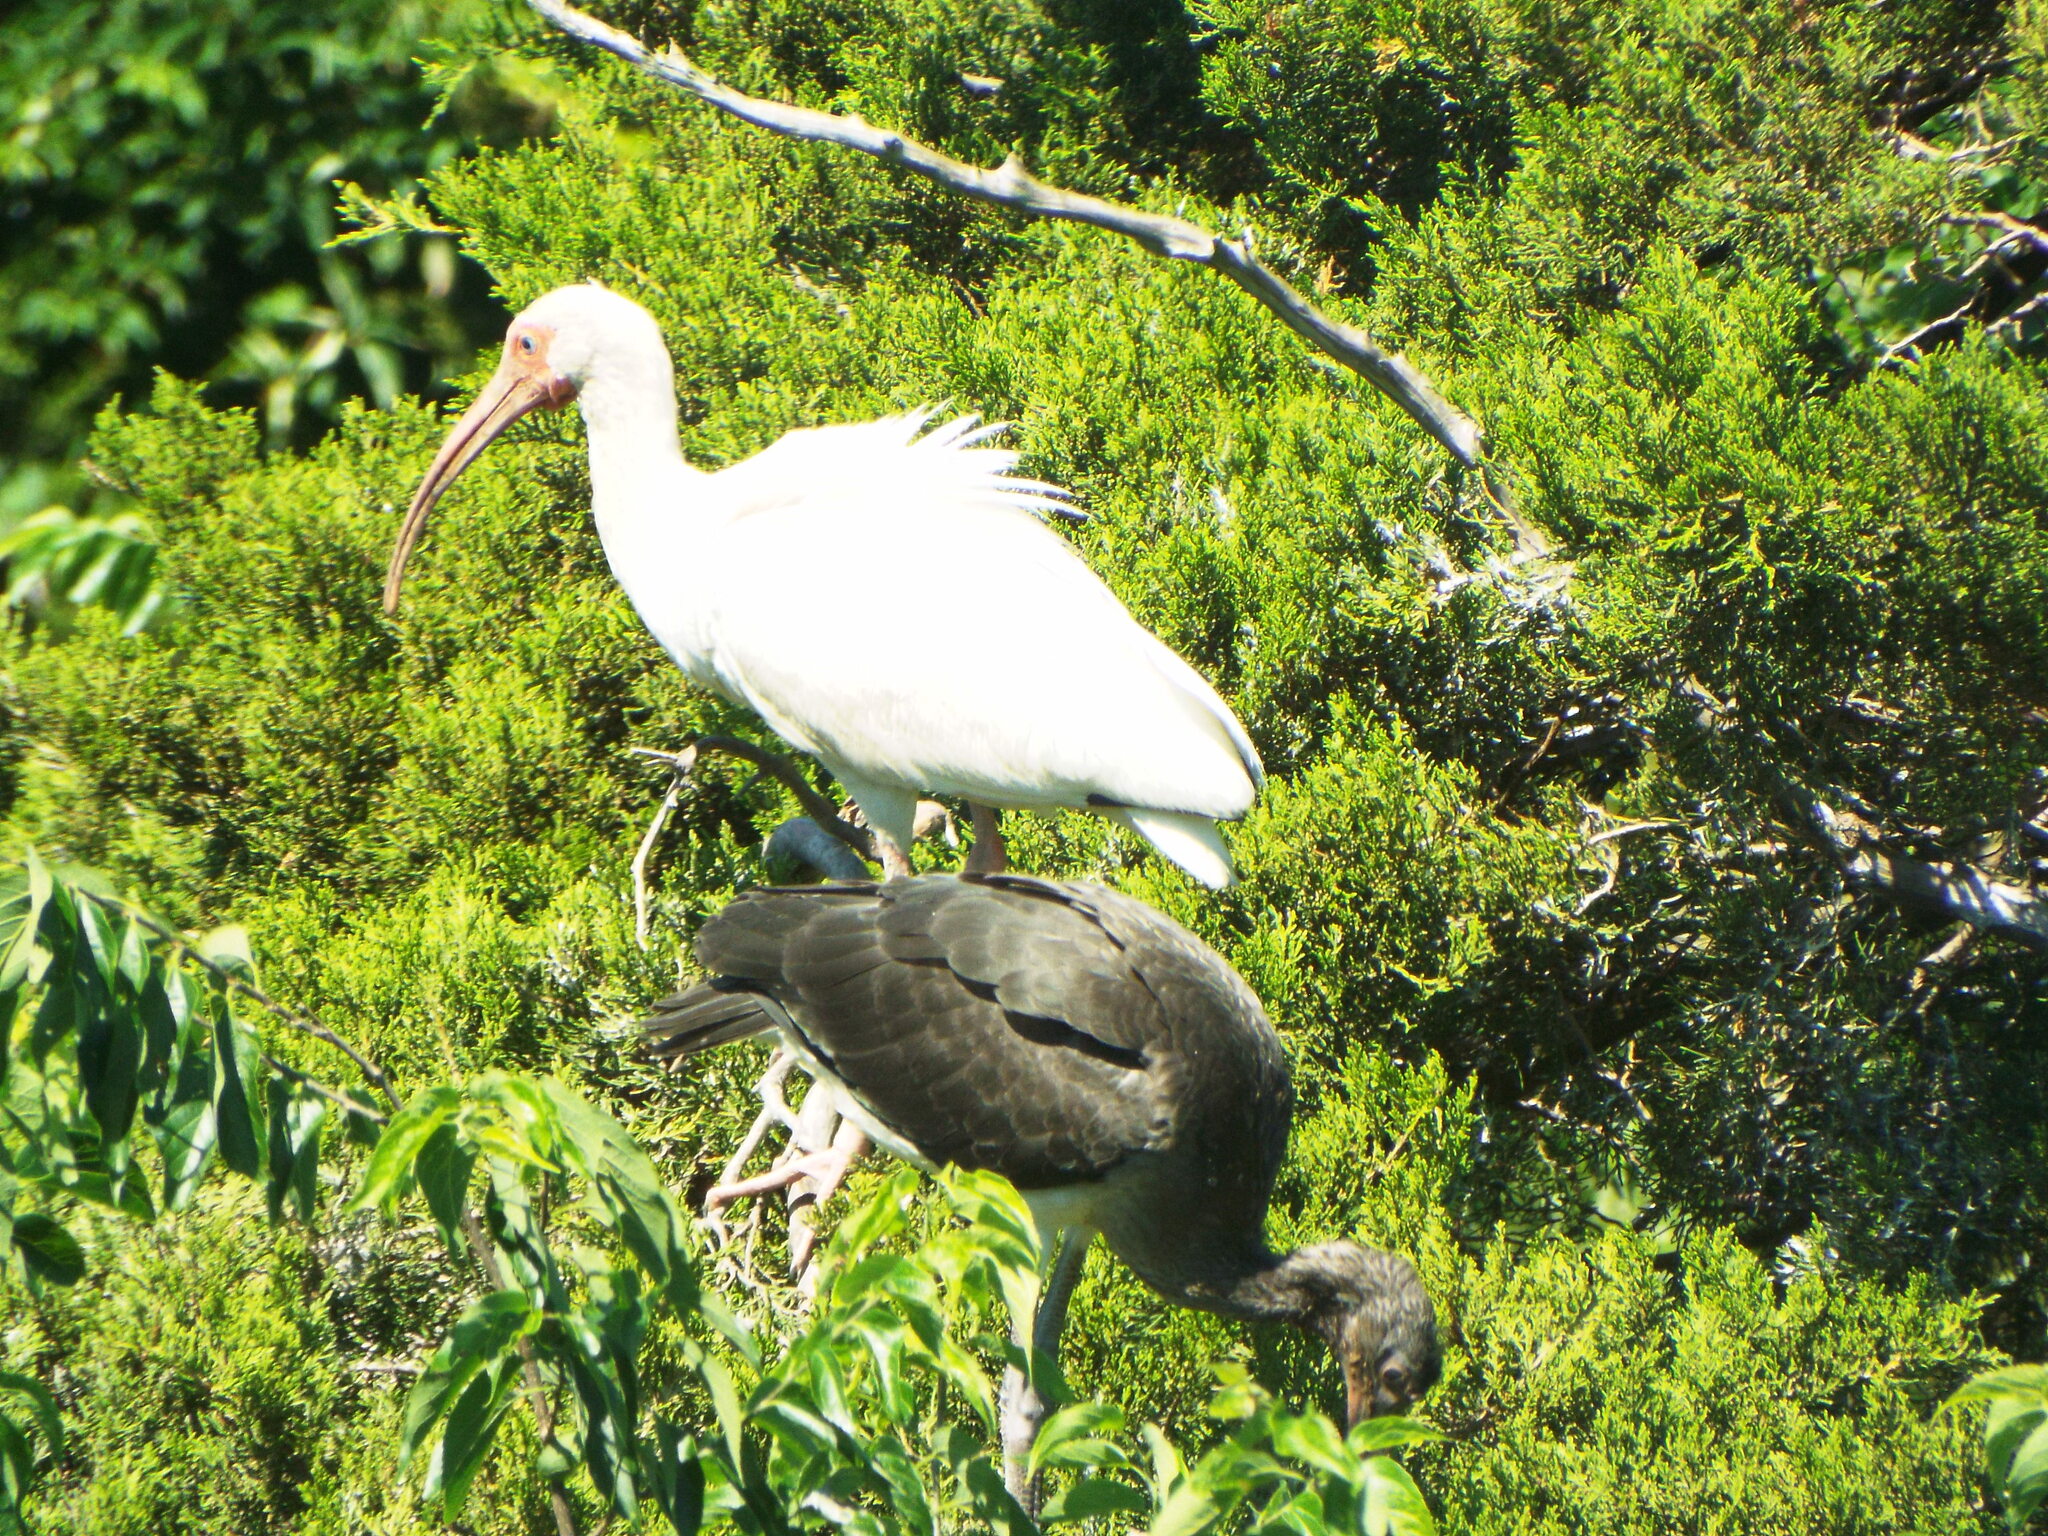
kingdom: Animalia
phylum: Chordata
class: Aves
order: Pelecaniformes
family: Threskiornithidae
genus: Eudocimus
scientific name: Eudocimus albus
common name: White ibis
